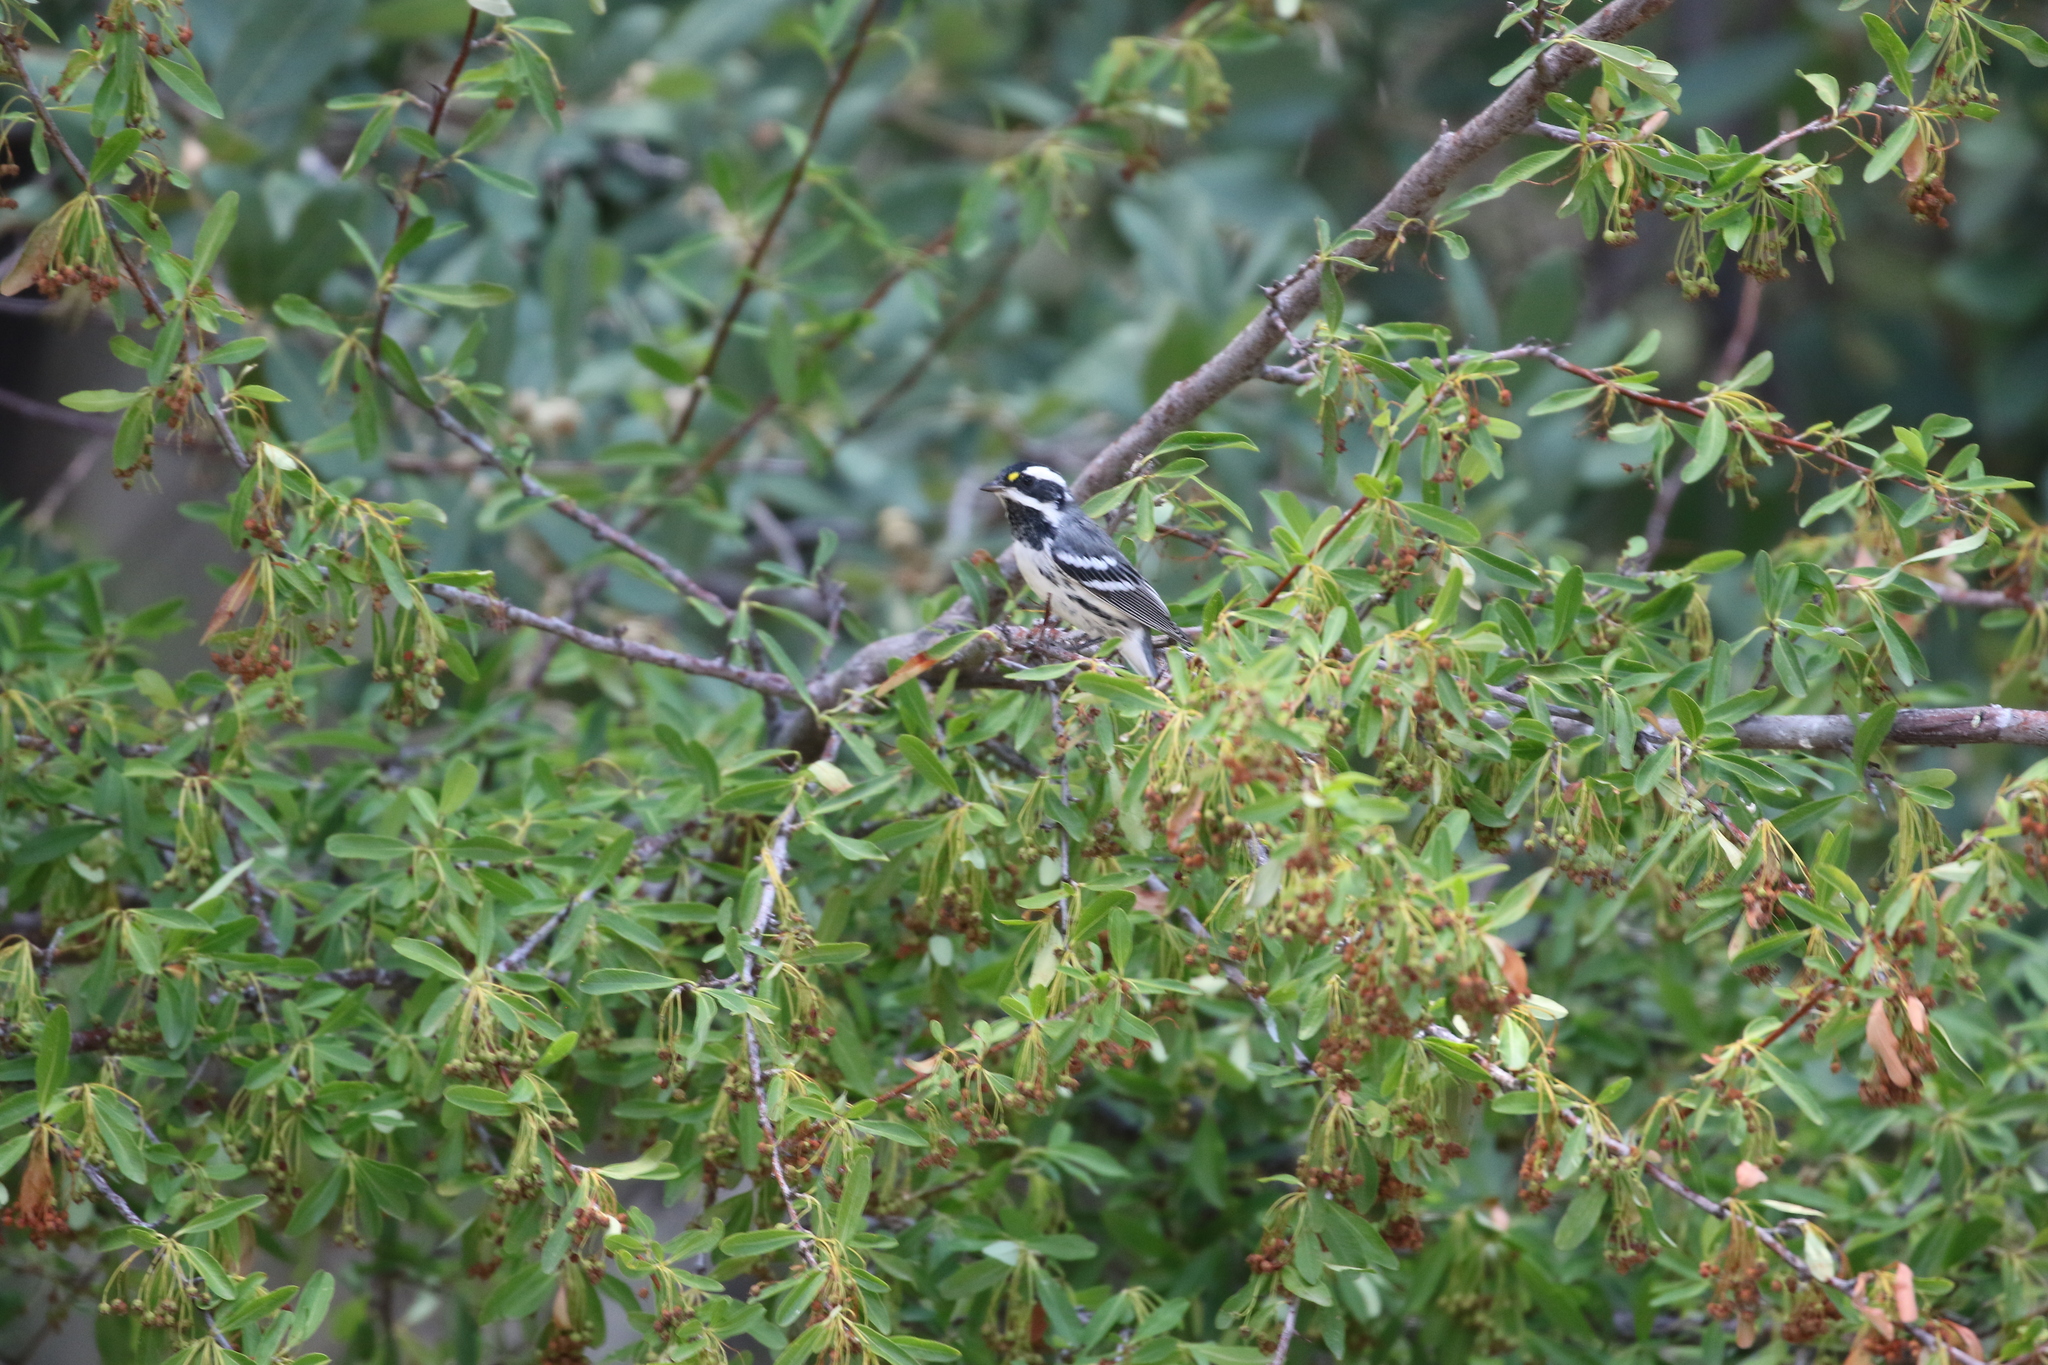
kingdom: Animalia
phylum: Chordata
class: Aves
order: Passeriformes
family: Parulidae
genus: Setophaga
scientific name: Setophaga nigrescens
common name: Black-throated gray warbler
